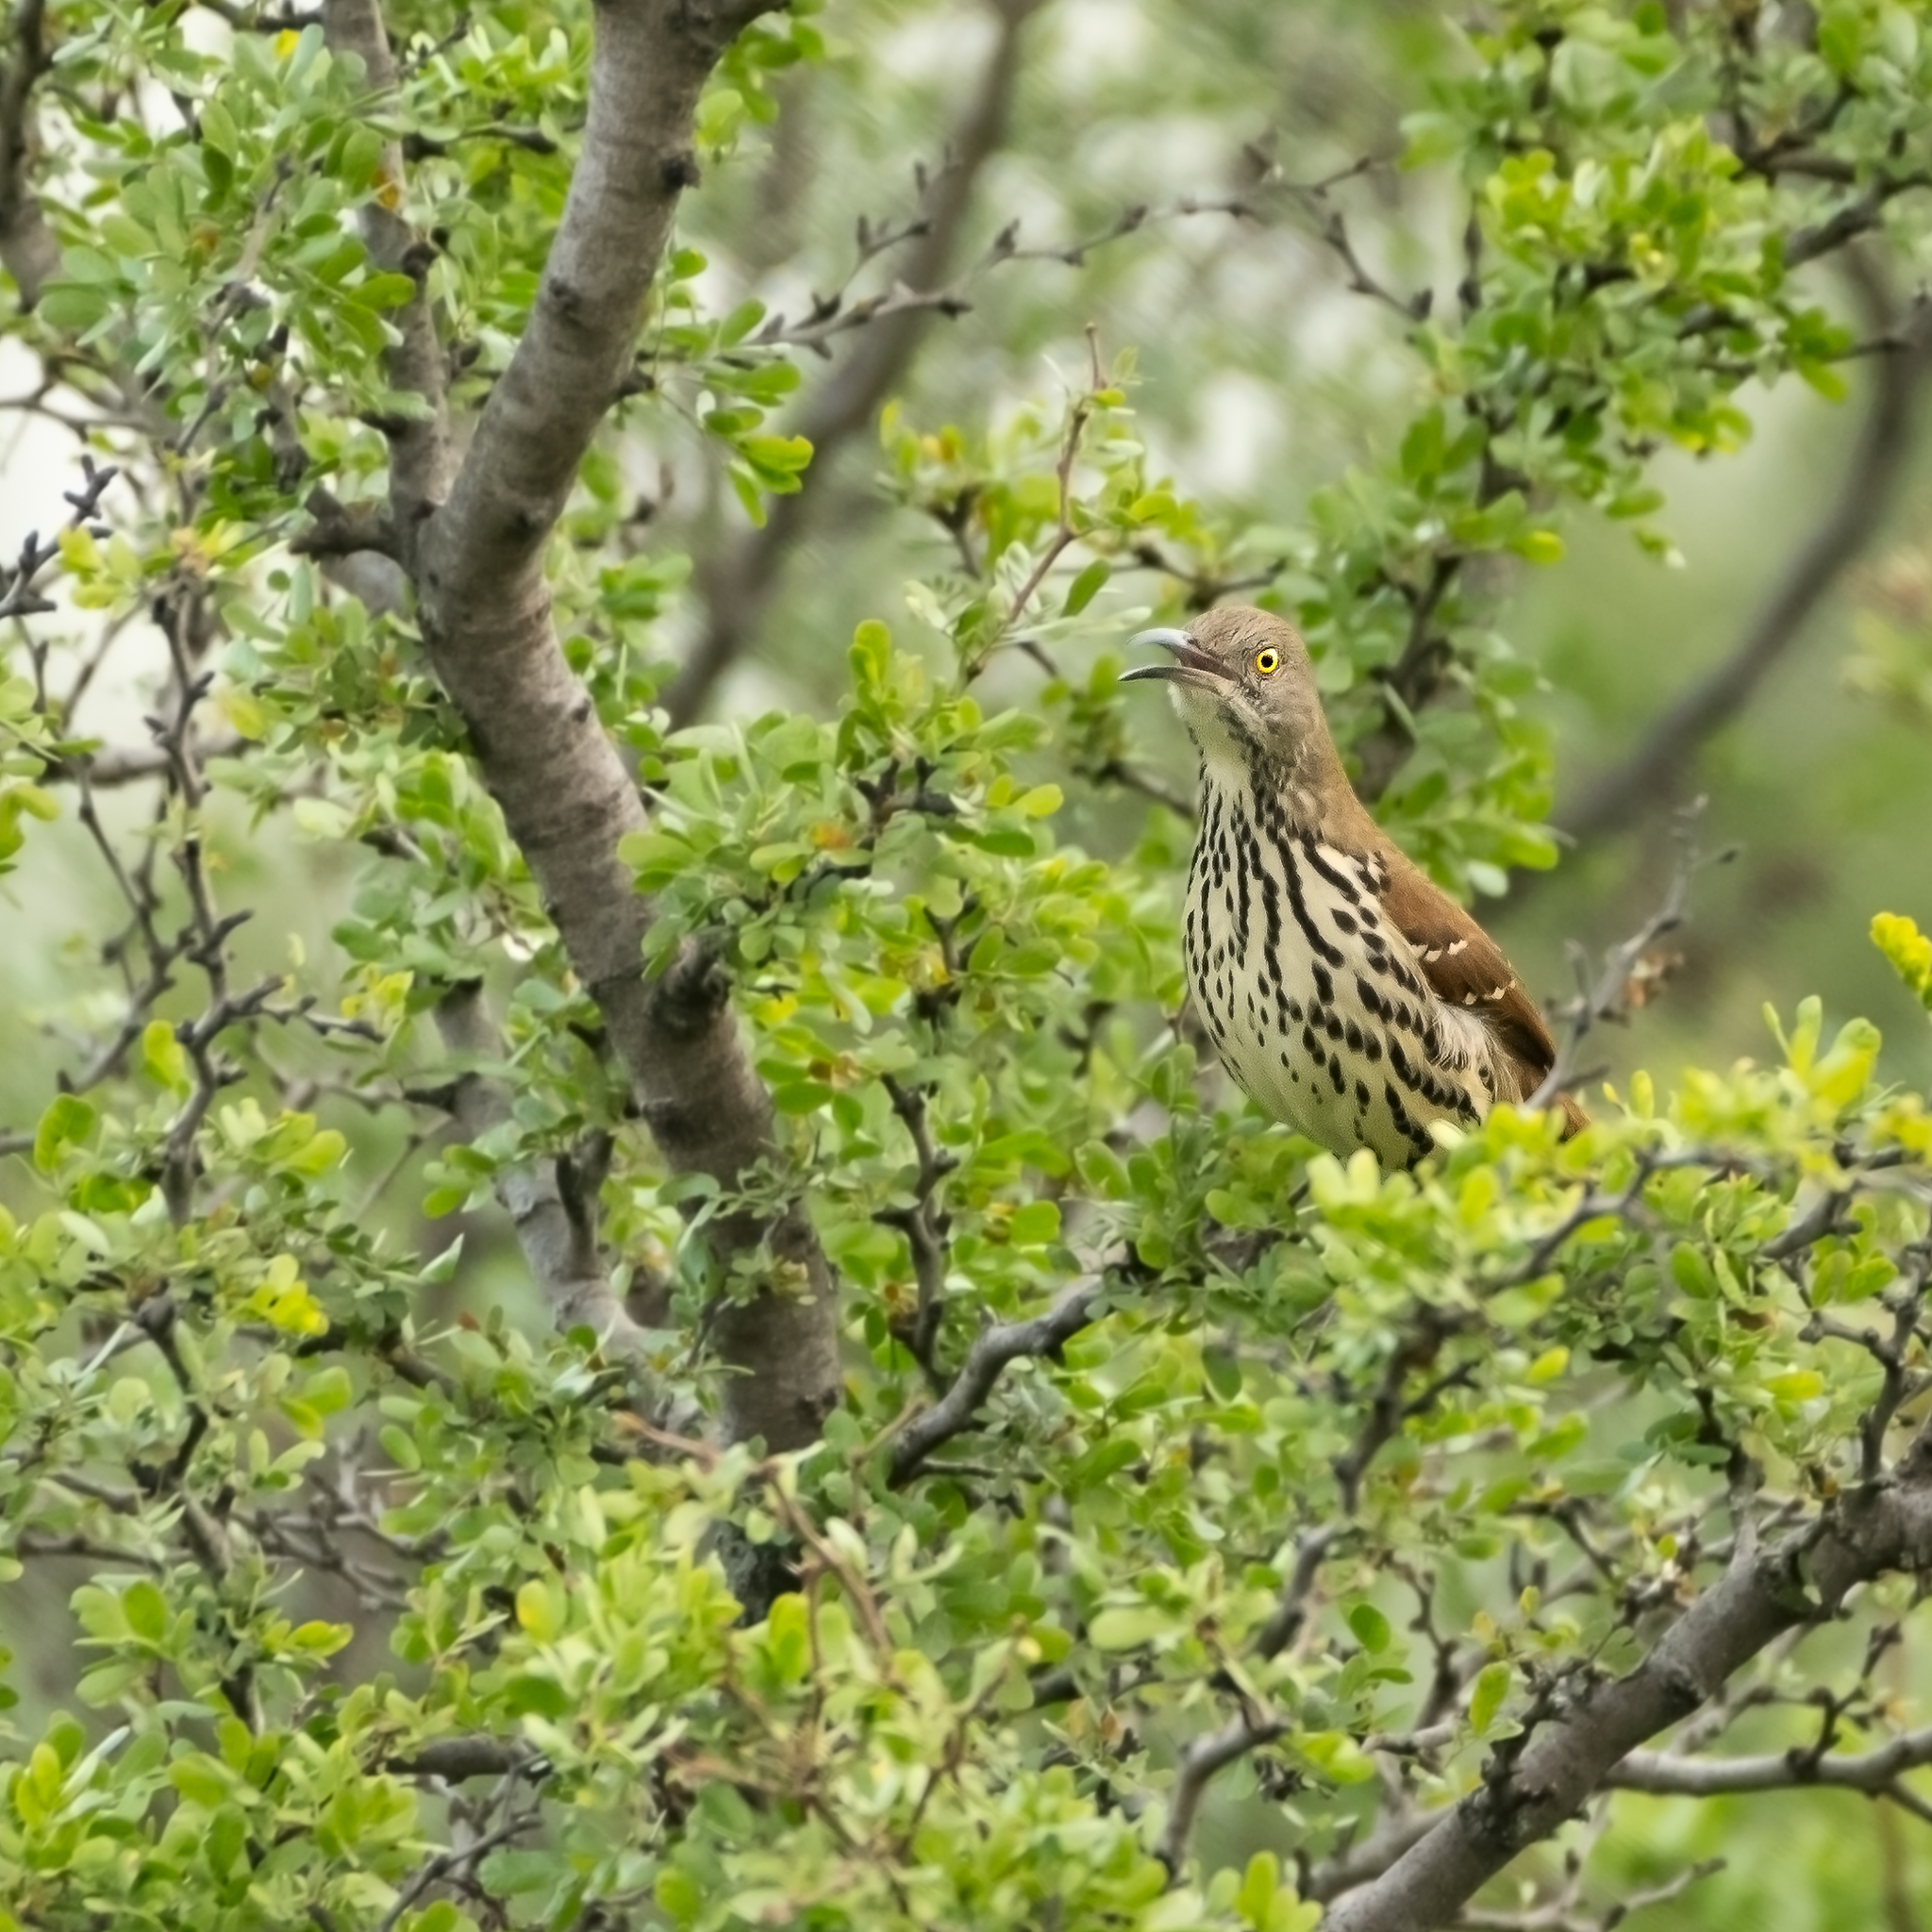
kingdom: Animalia
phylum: Chordata
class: Aves
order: Passeriformes
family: Mimidae
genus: Toxostoma
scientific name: Toxostoma longirostre
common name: Long-billed thrasher
